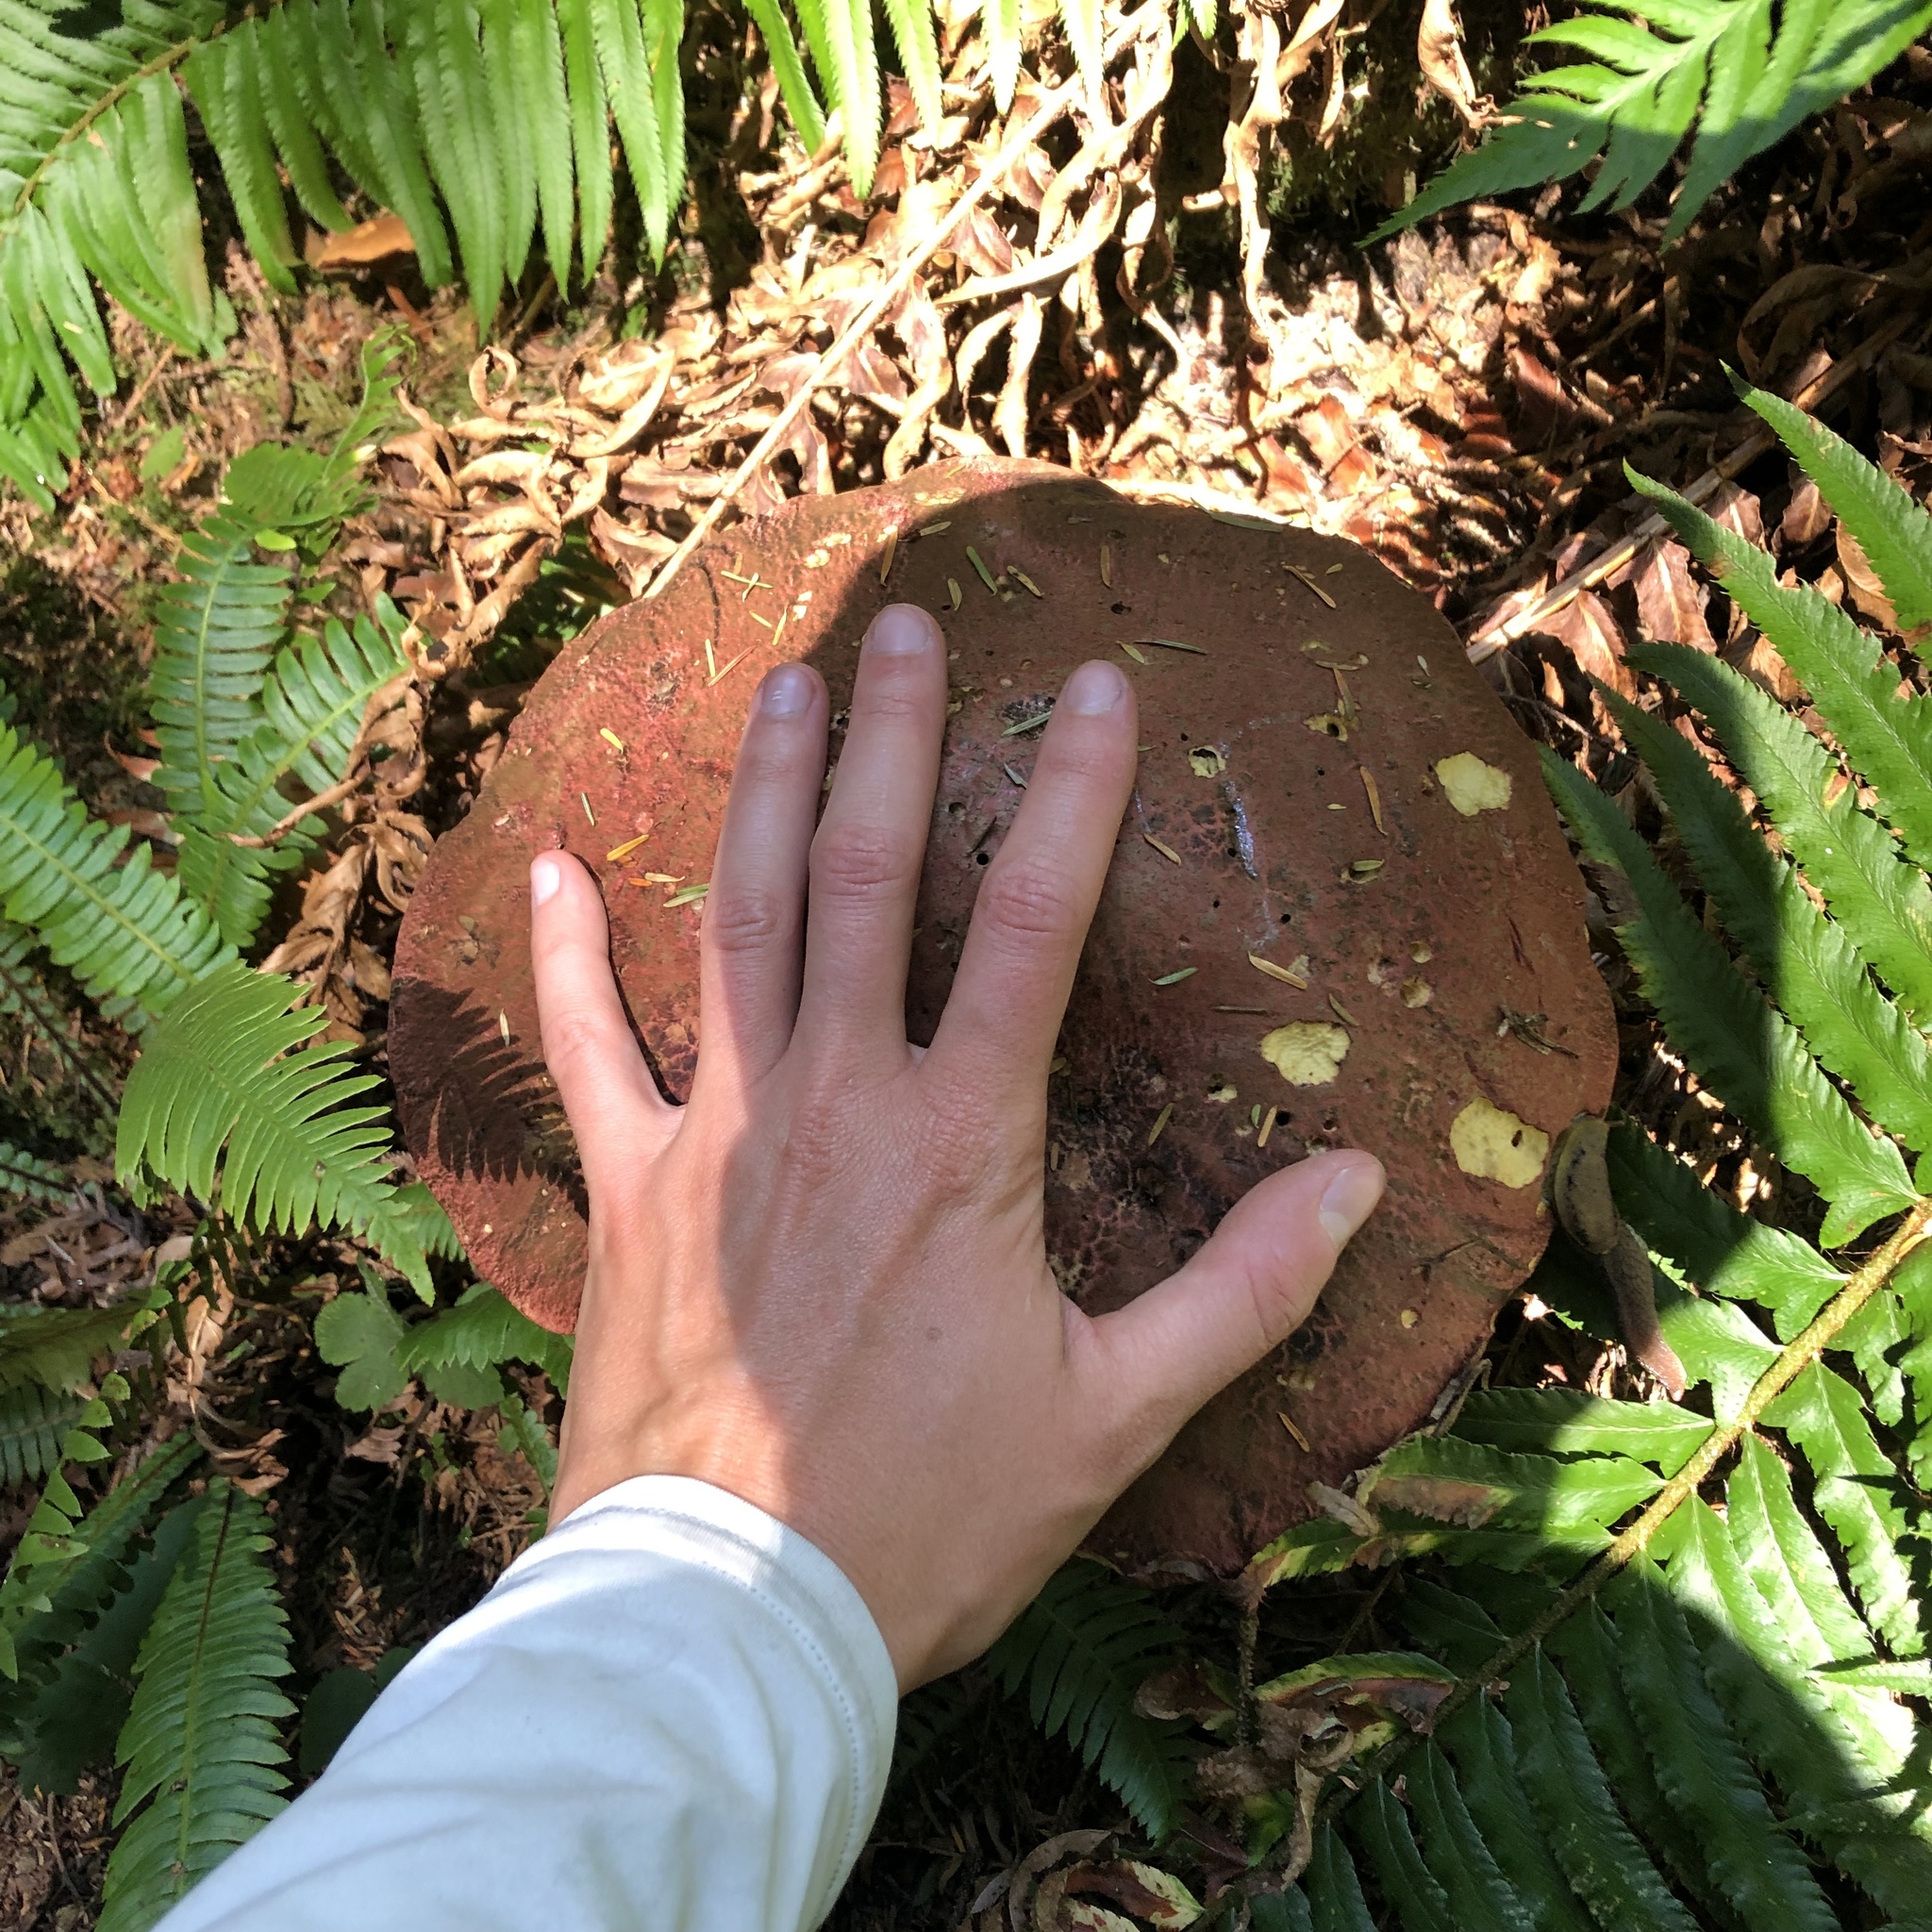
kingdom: Fungi
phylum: Basidiomycota
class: Agaricomycetes
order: Boletales
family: Boletaceae
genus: Rubroboletus
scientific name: Rubroboletus pulcherrimus
